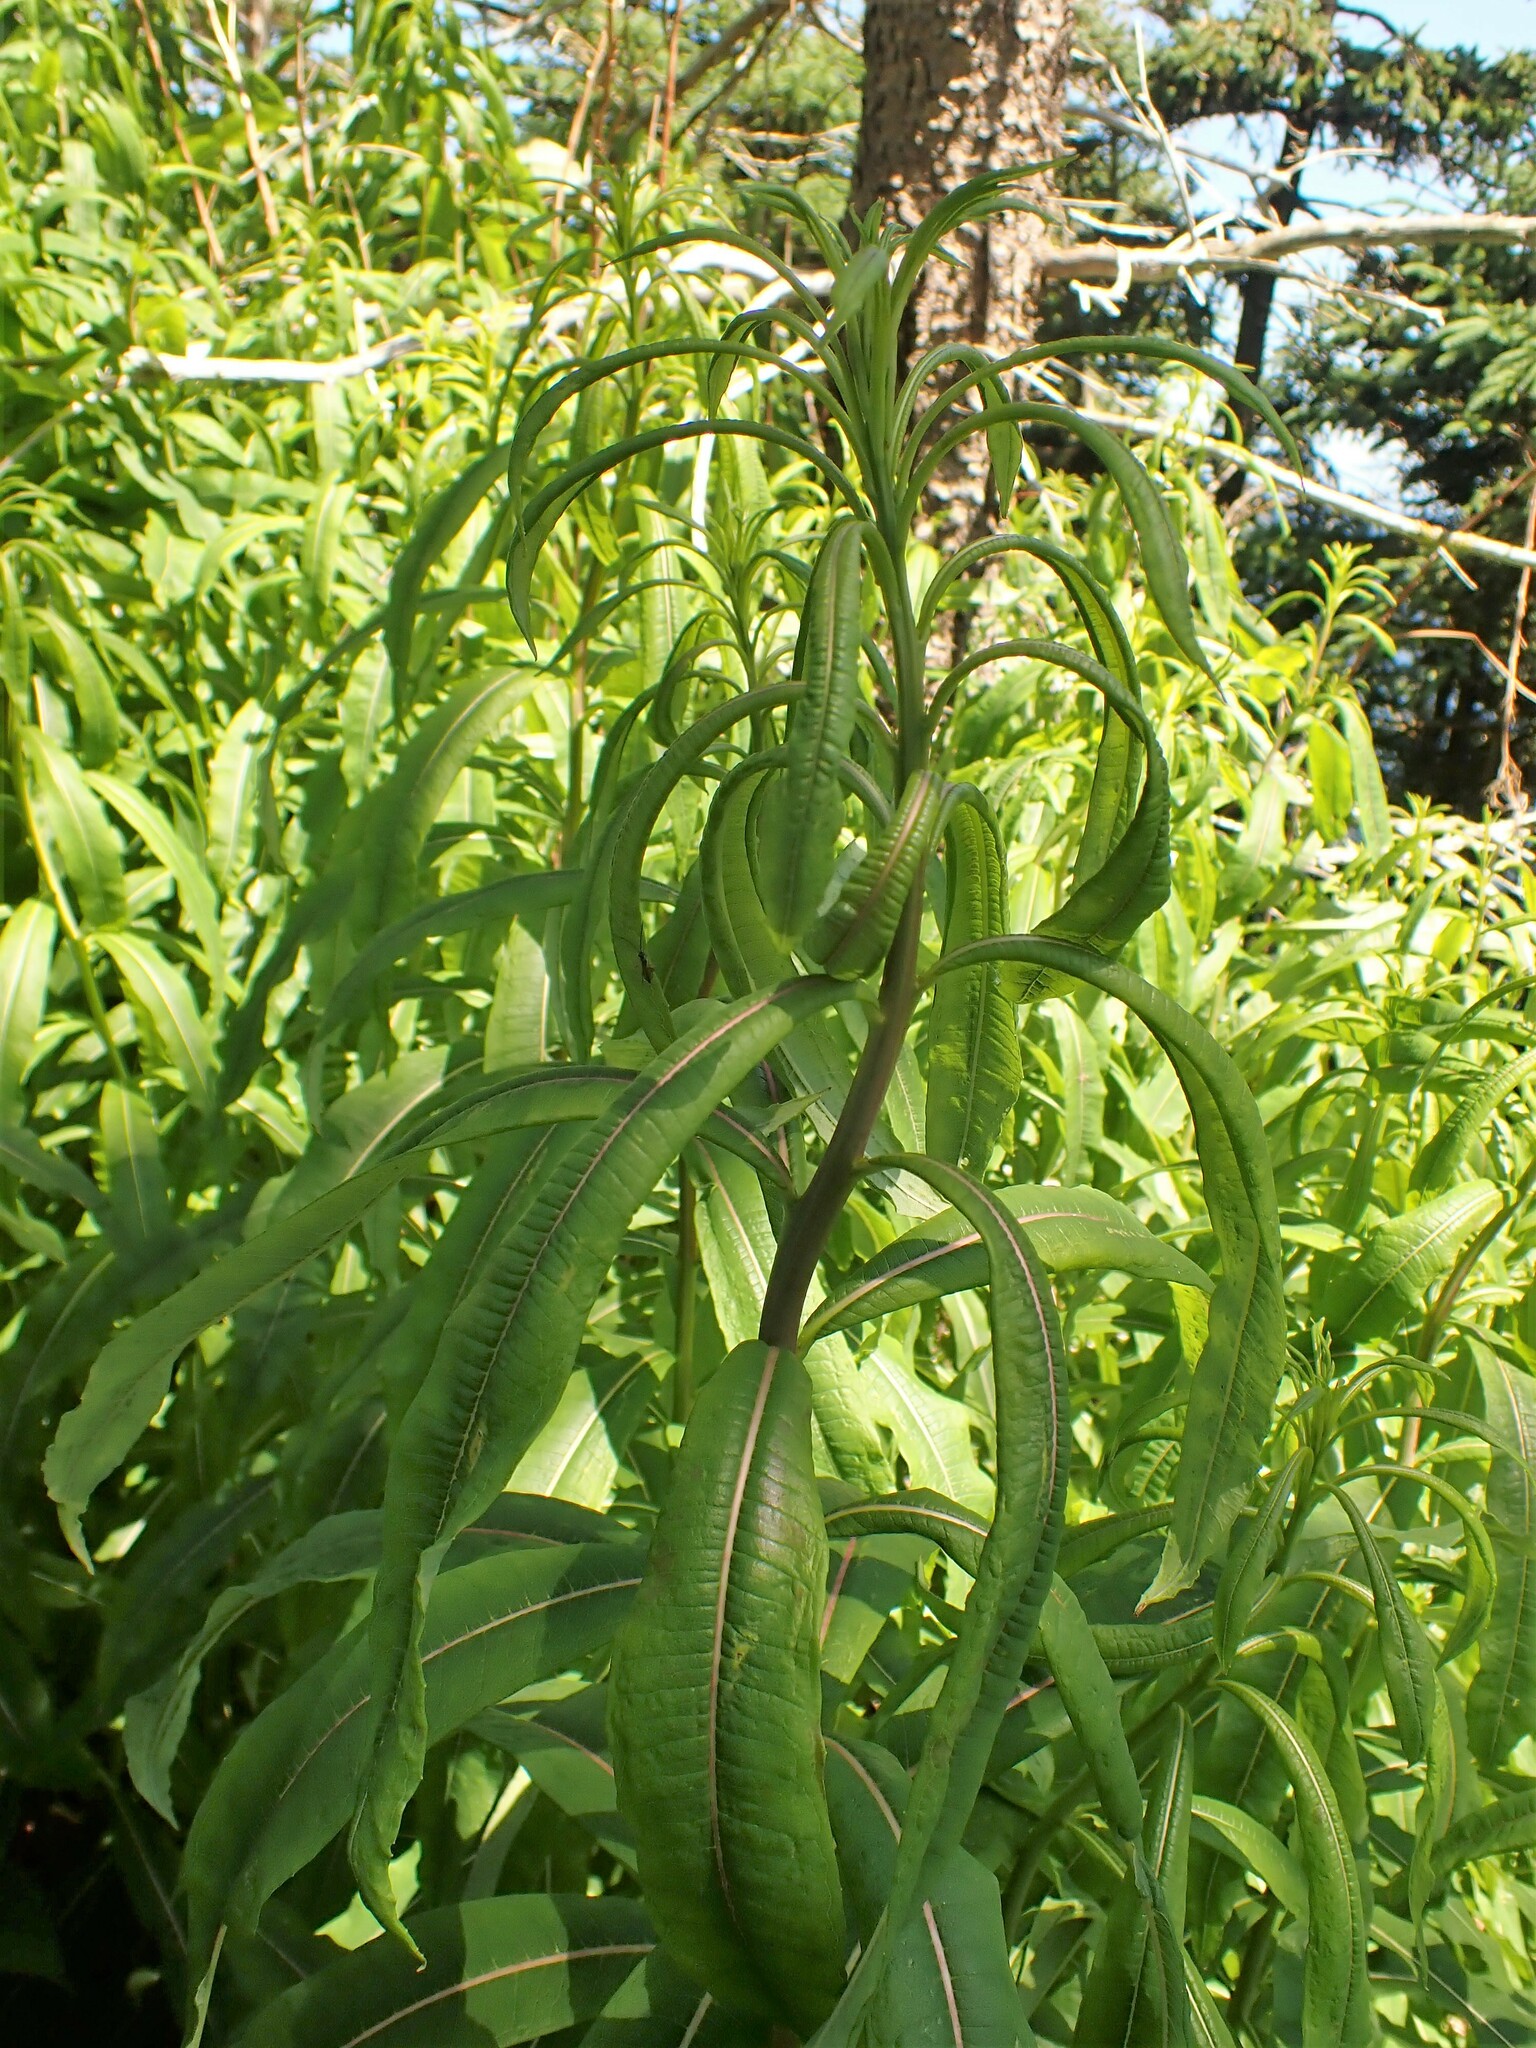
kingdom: Plantae
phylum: Tracheophyta
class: Magnoliopsida
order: Myrtales
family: Onagraceae
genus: Chamaenerion
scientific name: Chamaenerion angustifolium
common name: Fireweed
